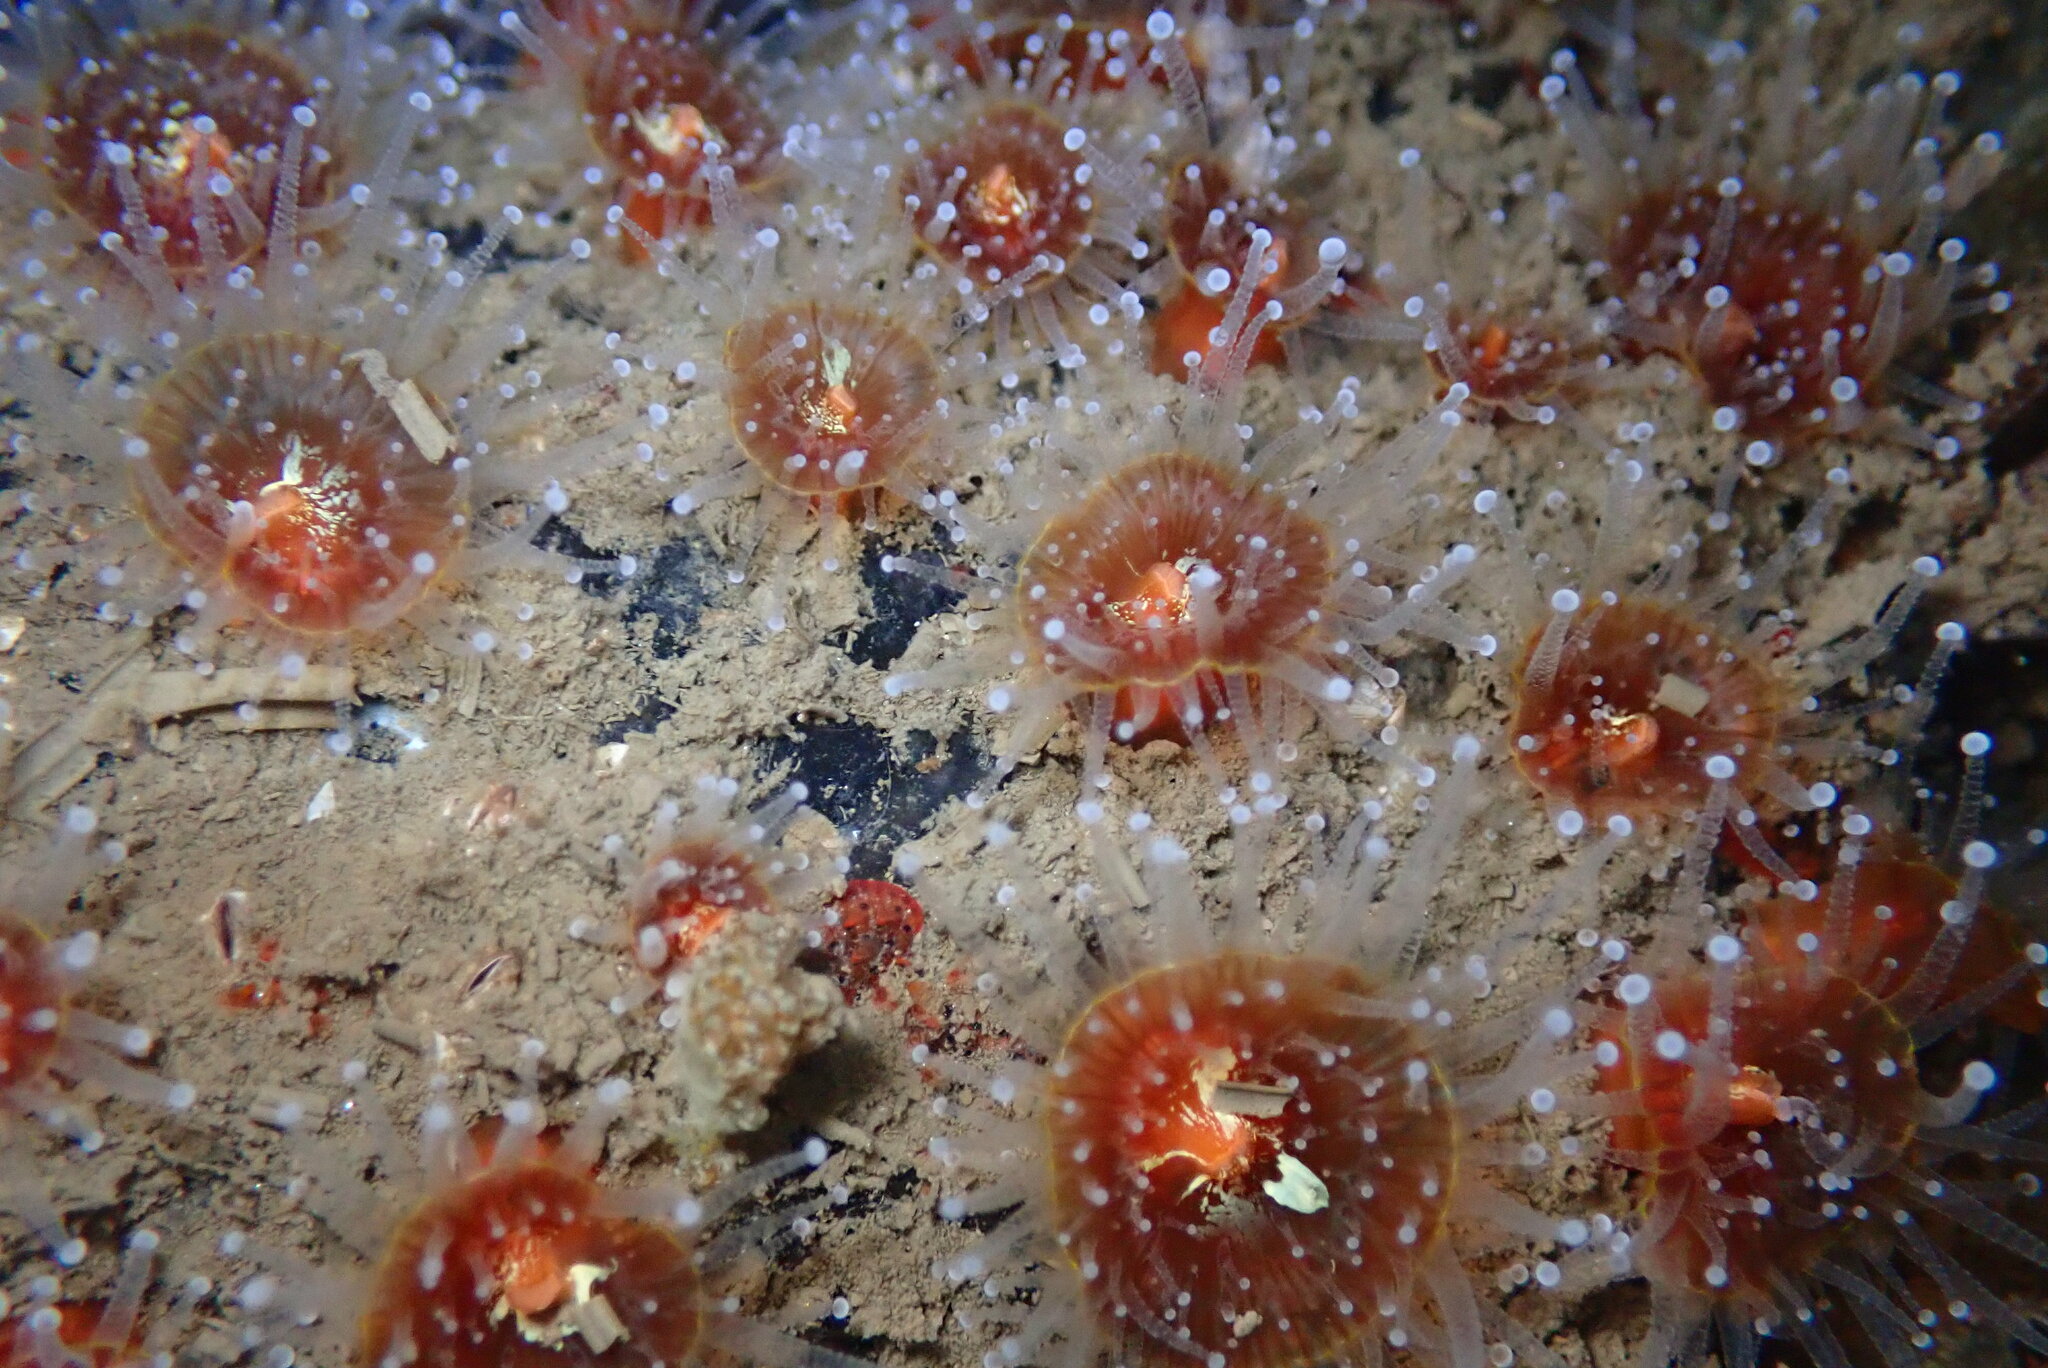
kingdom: Animalia
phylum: Cnidaria
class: Anthozoa
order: Corallimorpharia
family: Corallimorphidae
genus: Corynactis
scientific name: Corynactis californica
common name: Strawberry corallimorpharian
